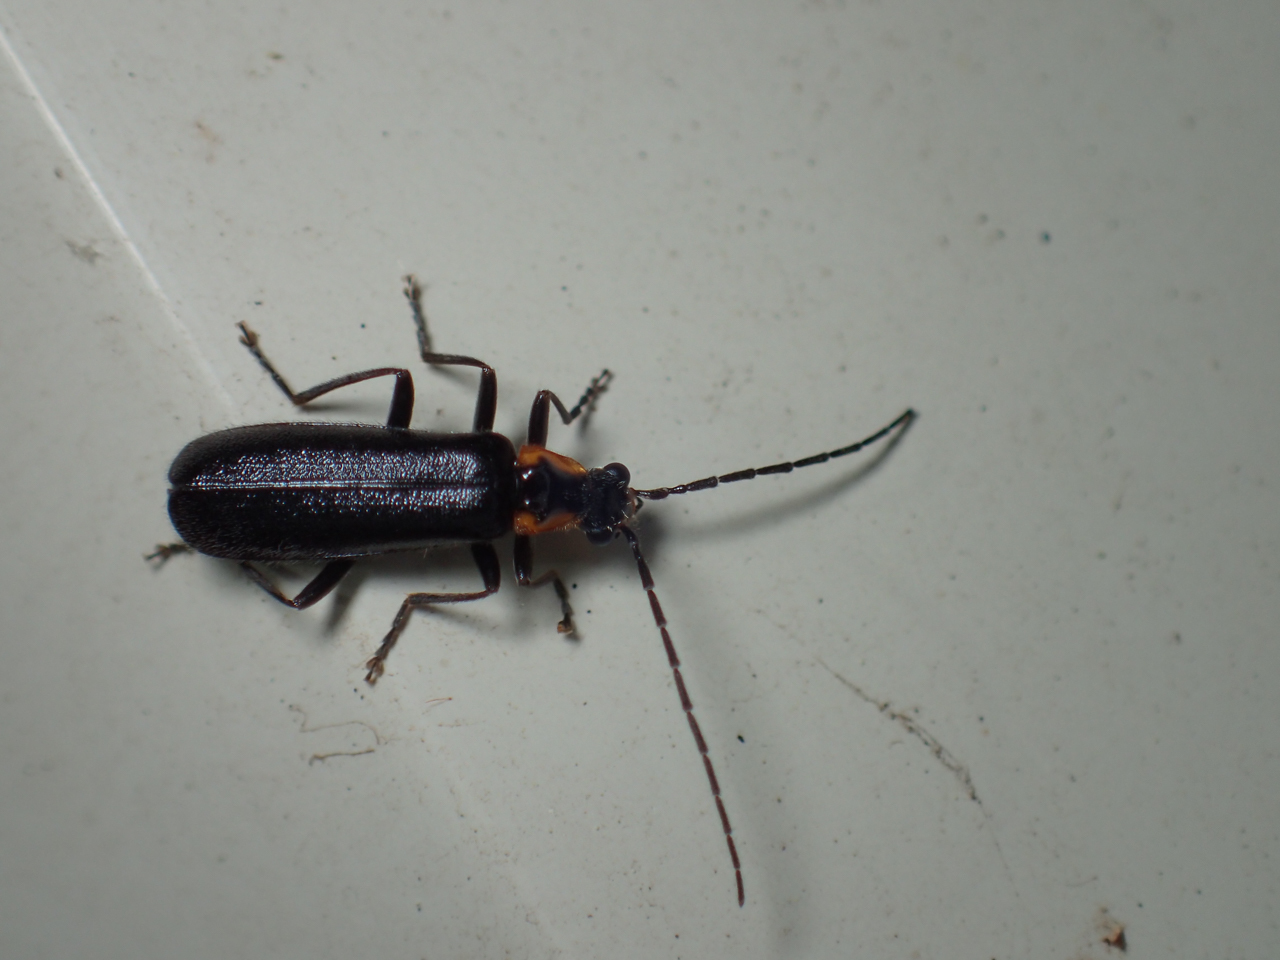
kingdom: Animalia
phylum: Arthropoda
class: Insecta
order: Coleoptera
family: Cantharidae
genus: Rhagonycha
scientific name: Rhagonycha angulata
